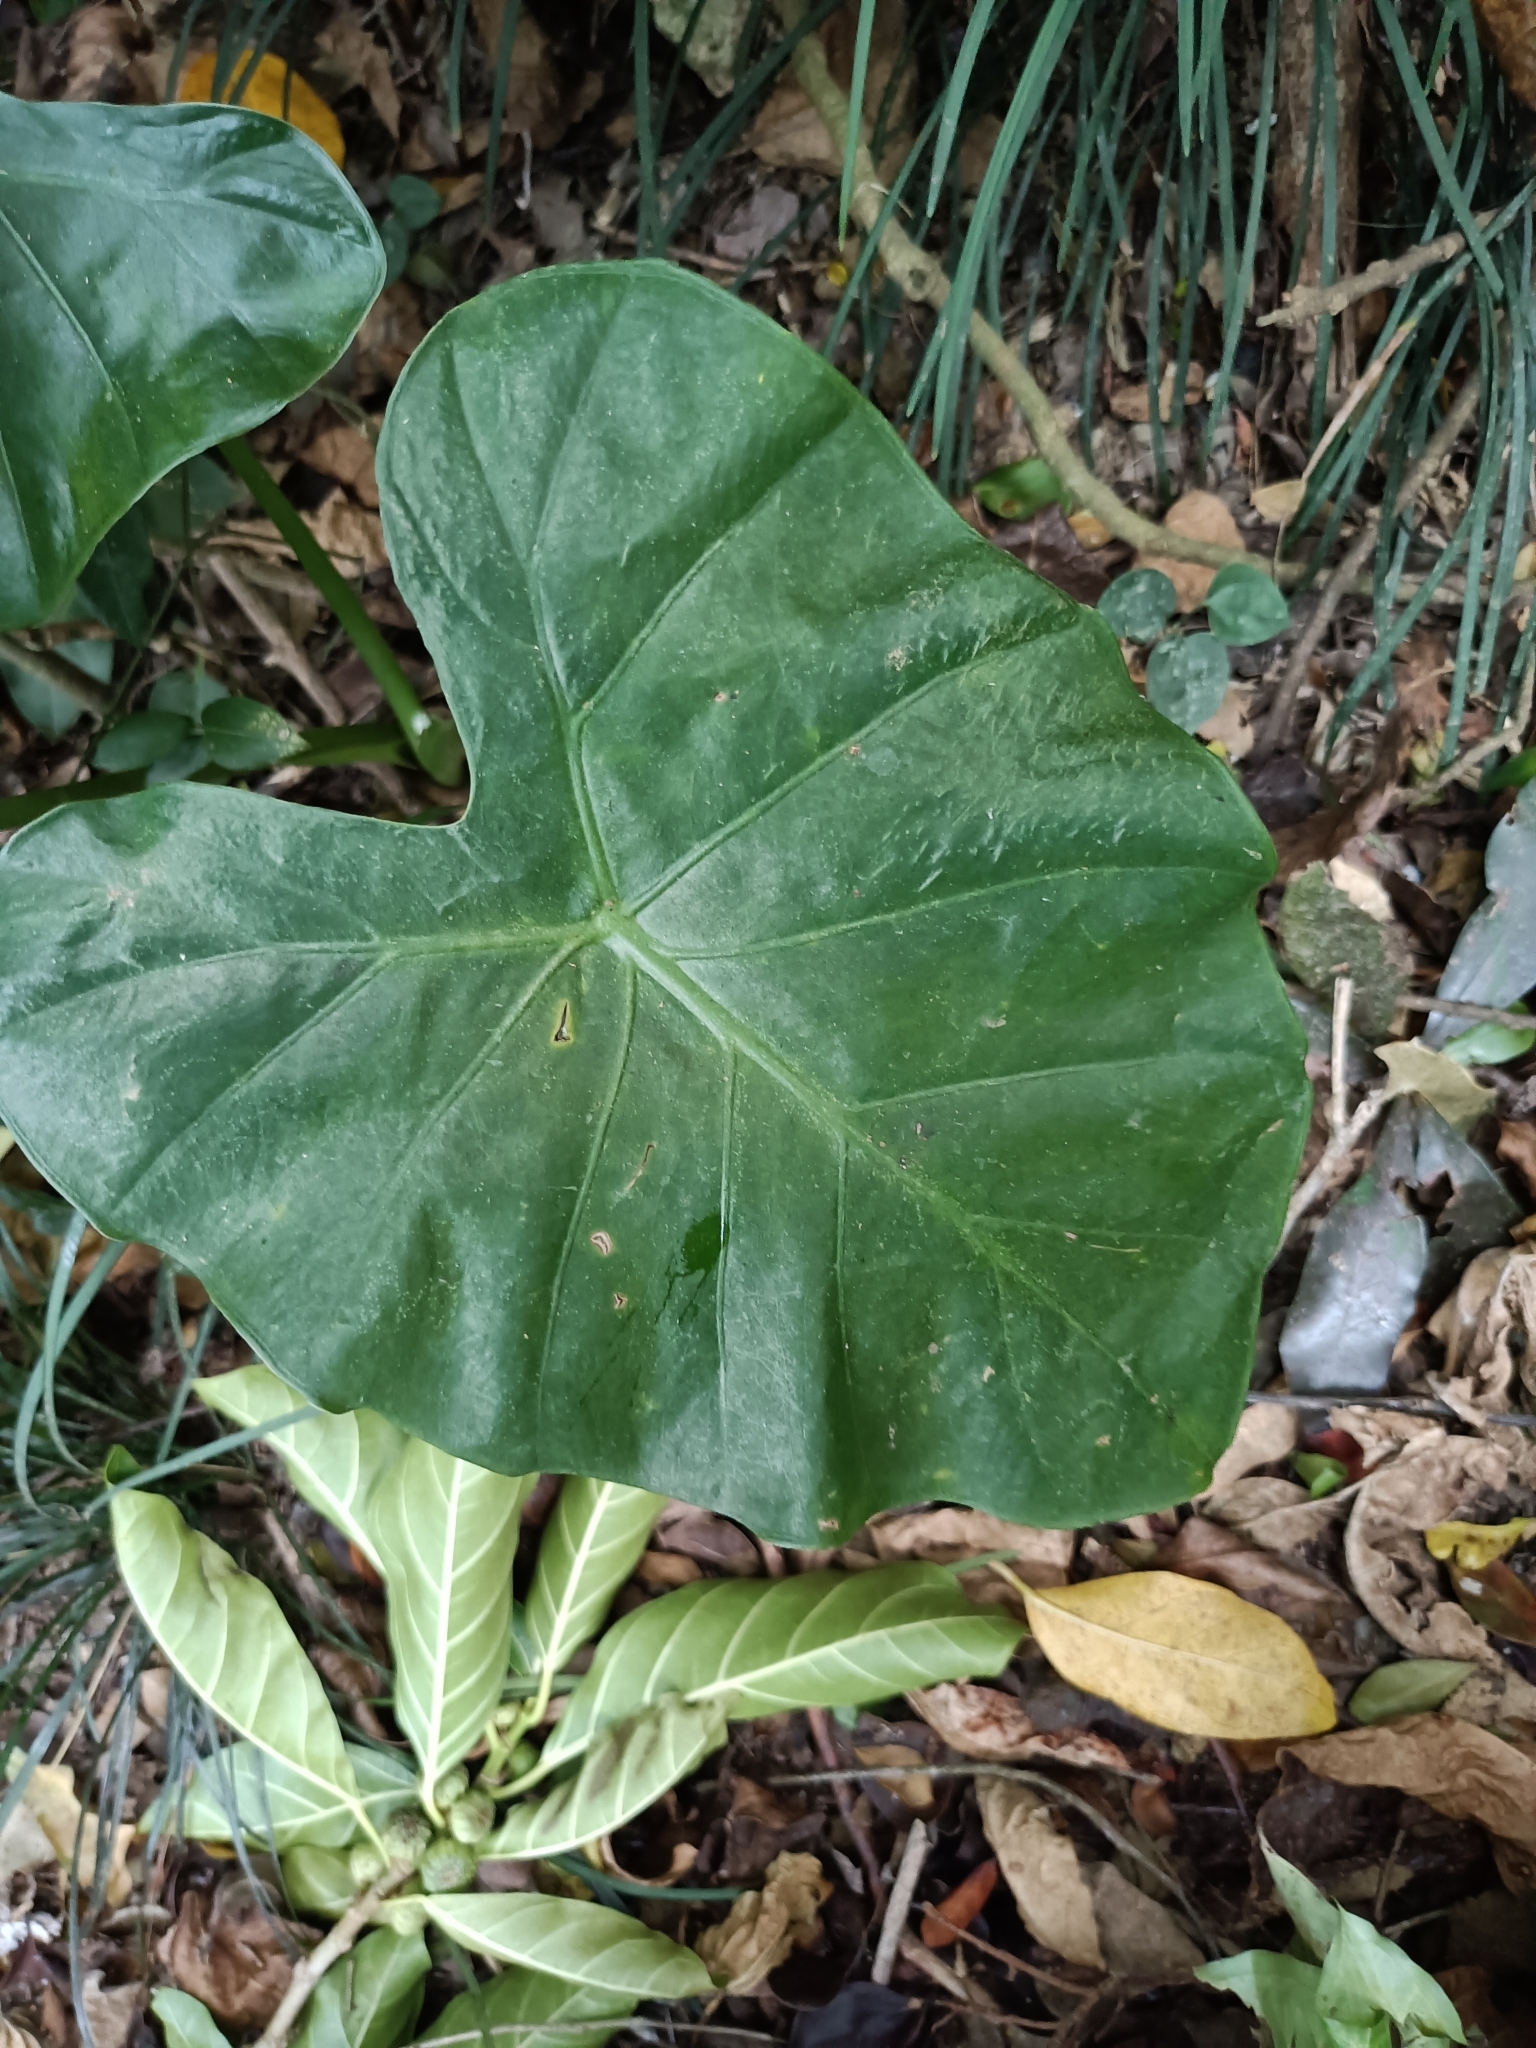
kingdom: Plantae
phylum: Tracheophyta
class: Liliopsida
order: Alismatales
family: Araceae
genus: Alocasia
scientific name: Alocasia odora
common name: Asian taro
